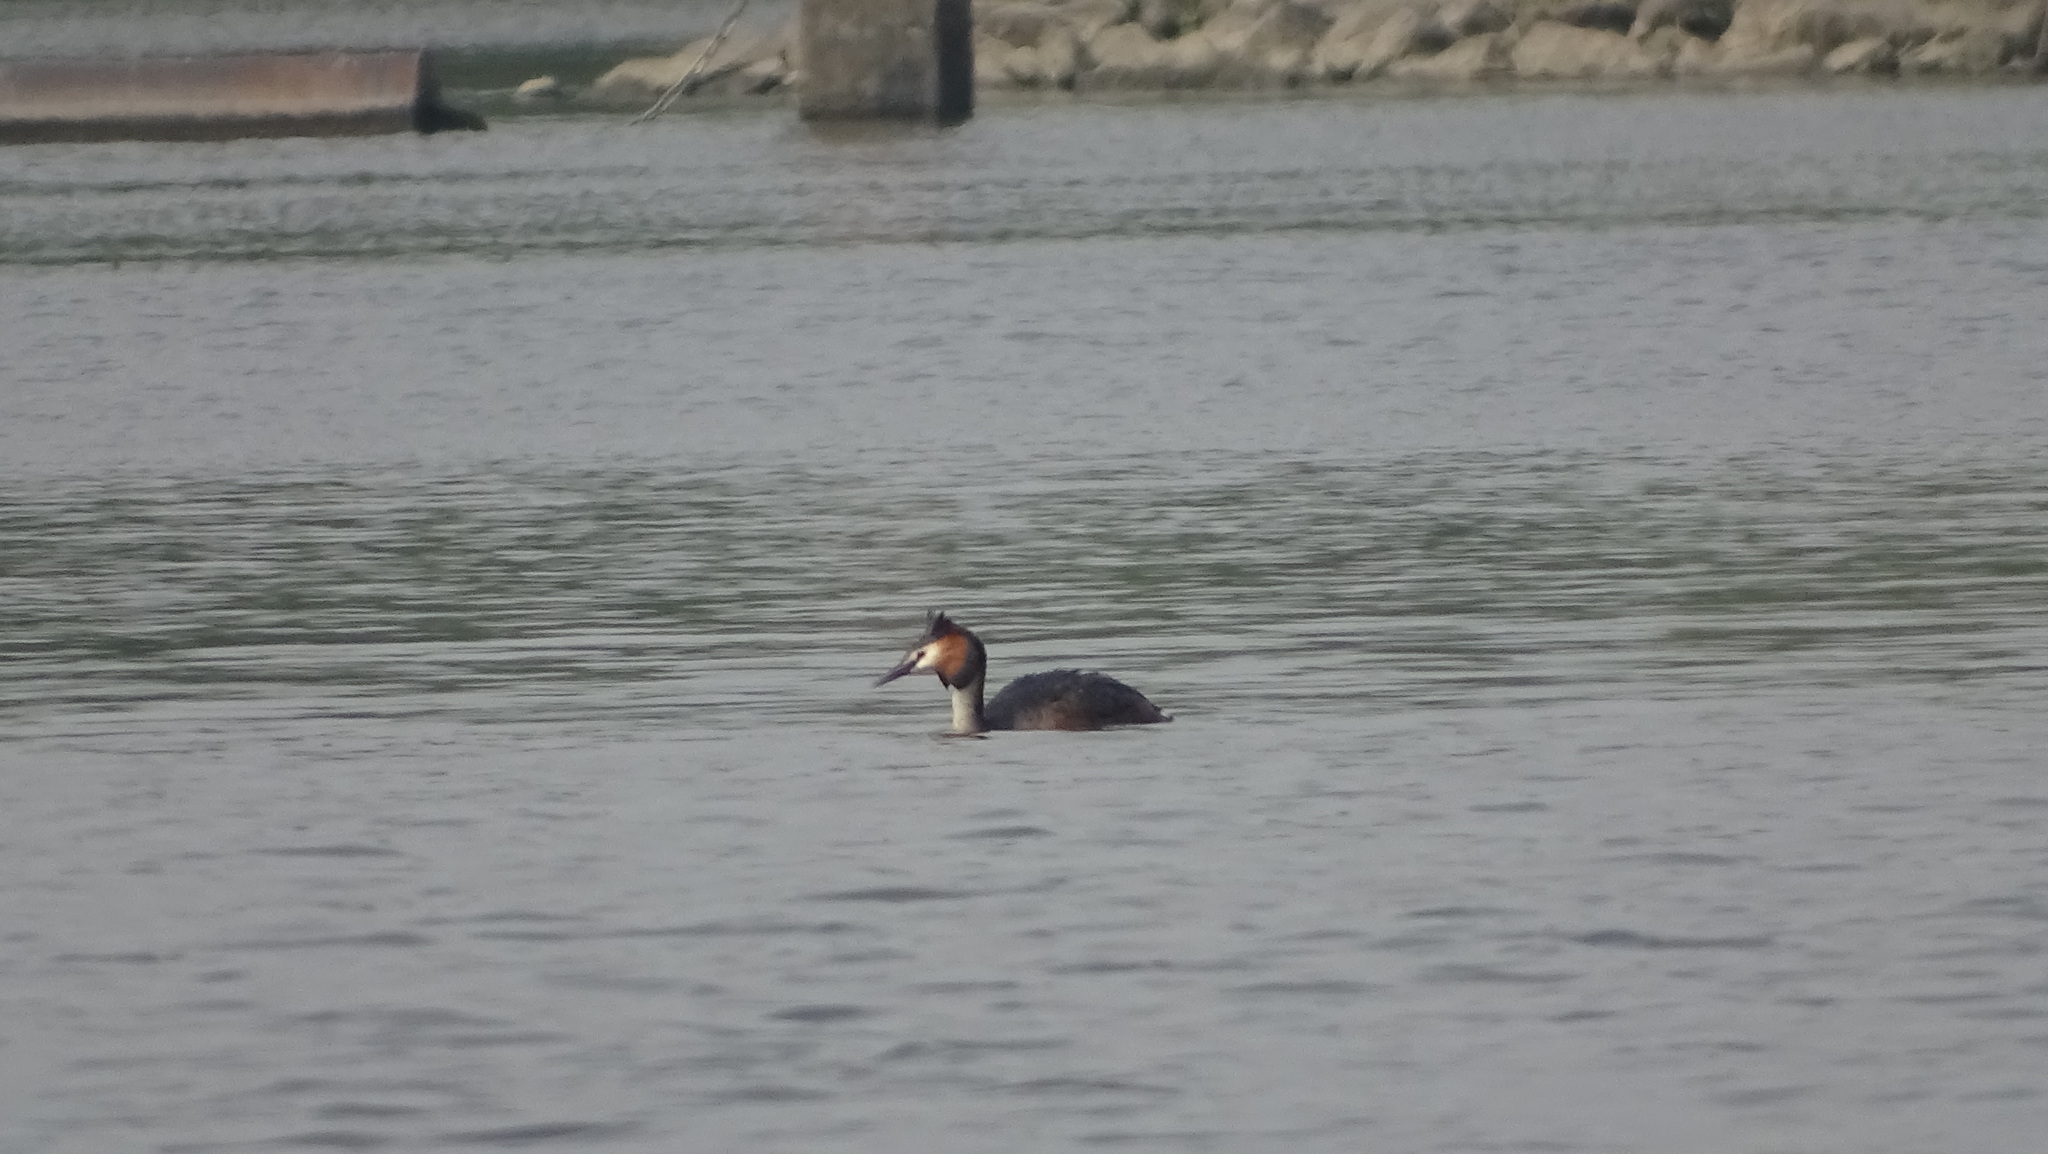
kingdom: Animalia
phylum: Chordata
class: Aves
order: Podicipediformes
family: Podicipedidae
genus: Podiceps
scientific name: Podiceps cristatus
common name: Great crested grebe
